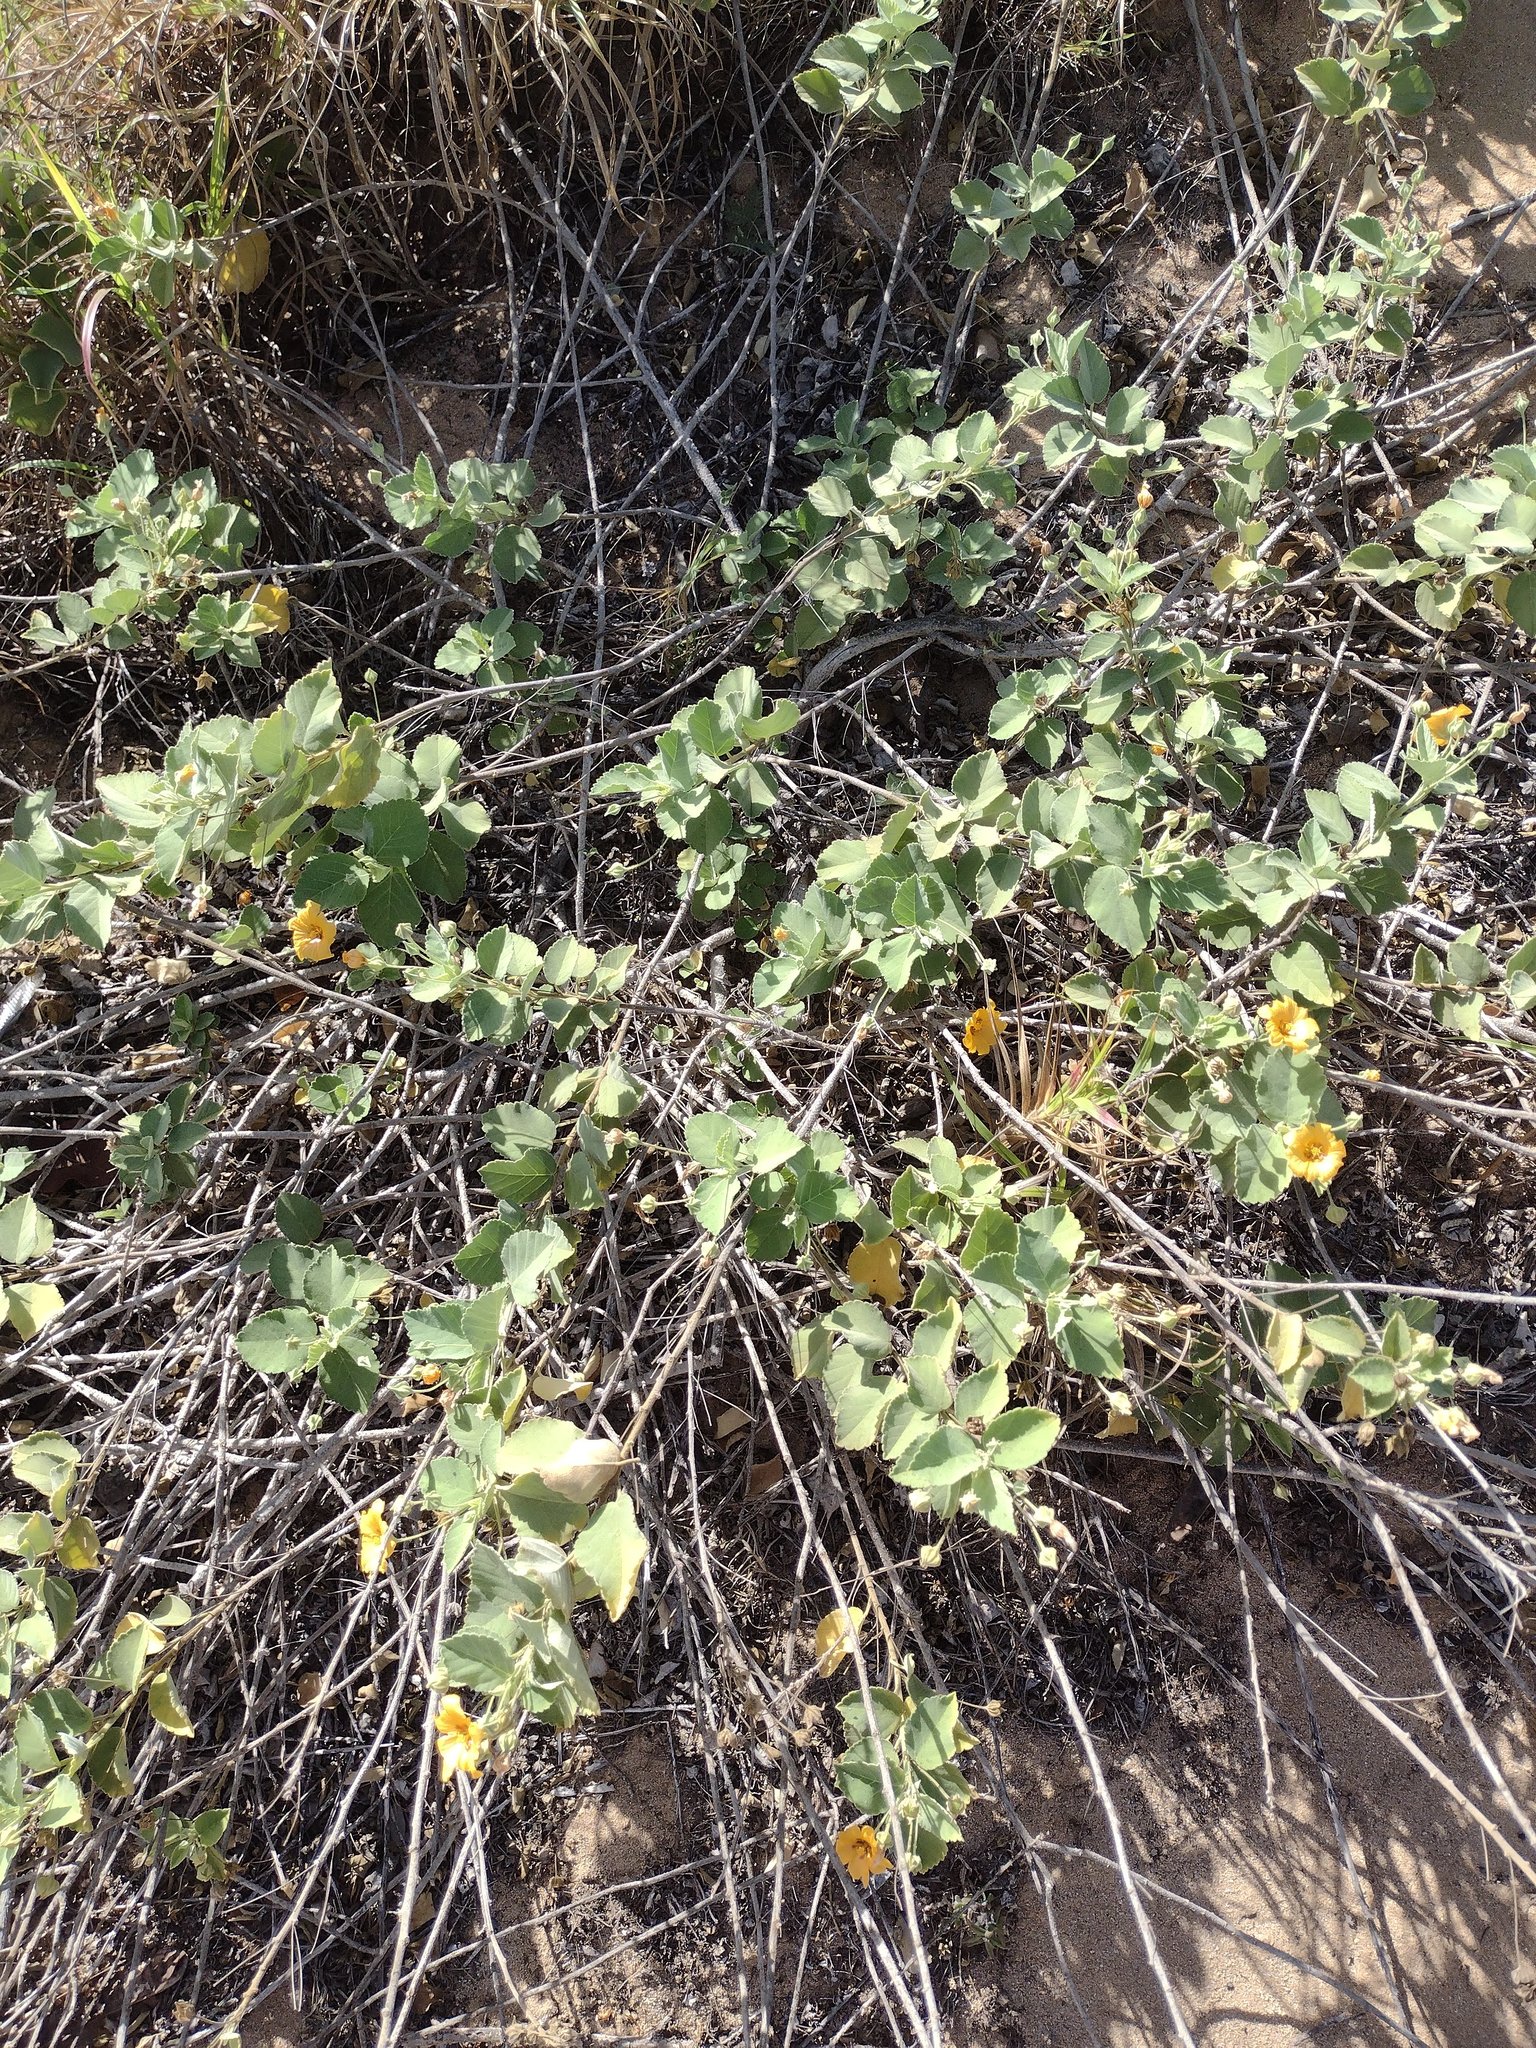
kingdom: Plantae
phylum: Tracheophyta
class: Magnoliopsida
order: Malvales
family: Malvaceae
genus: Sida
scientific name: Sida fallax
